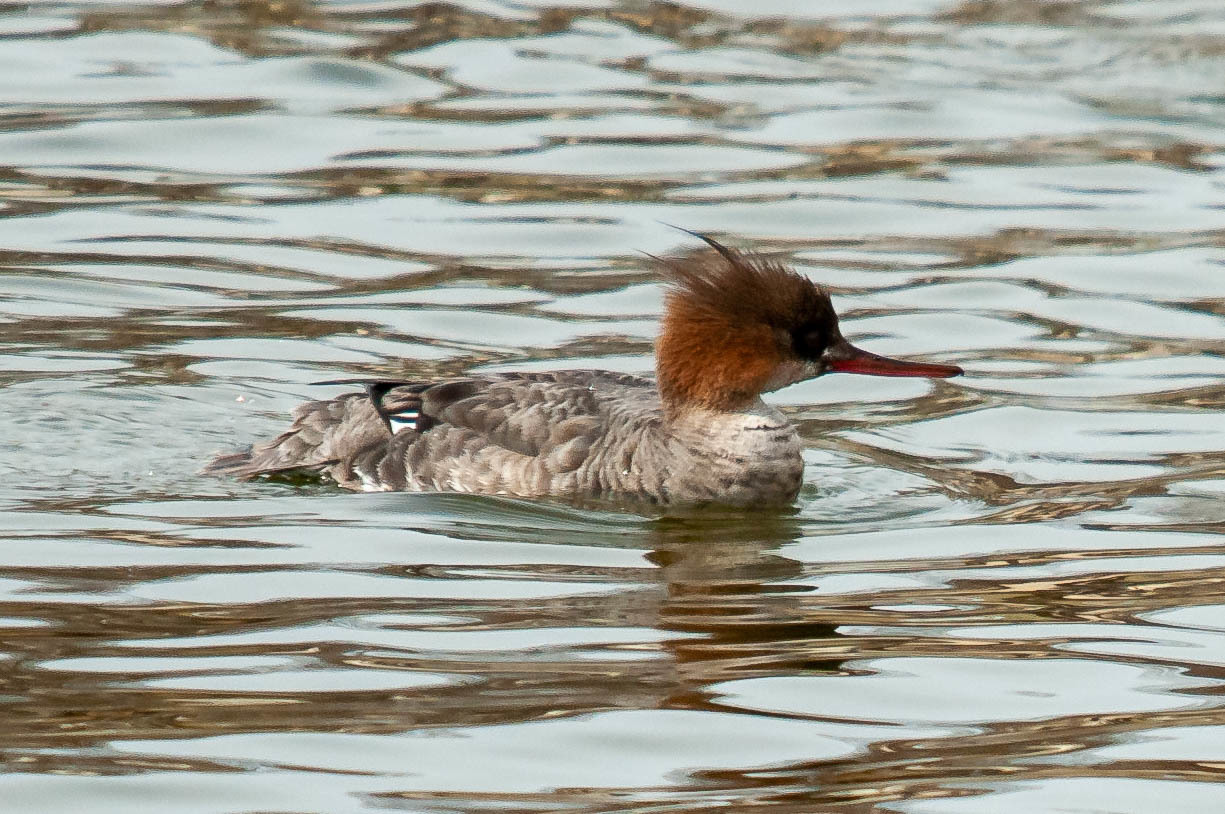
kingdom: Animalia
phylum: Chordata
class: Aves
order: Anseriformes
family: Anatidae
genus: Mergus
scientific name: Mergus serrator
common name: Red-breasted merganser
